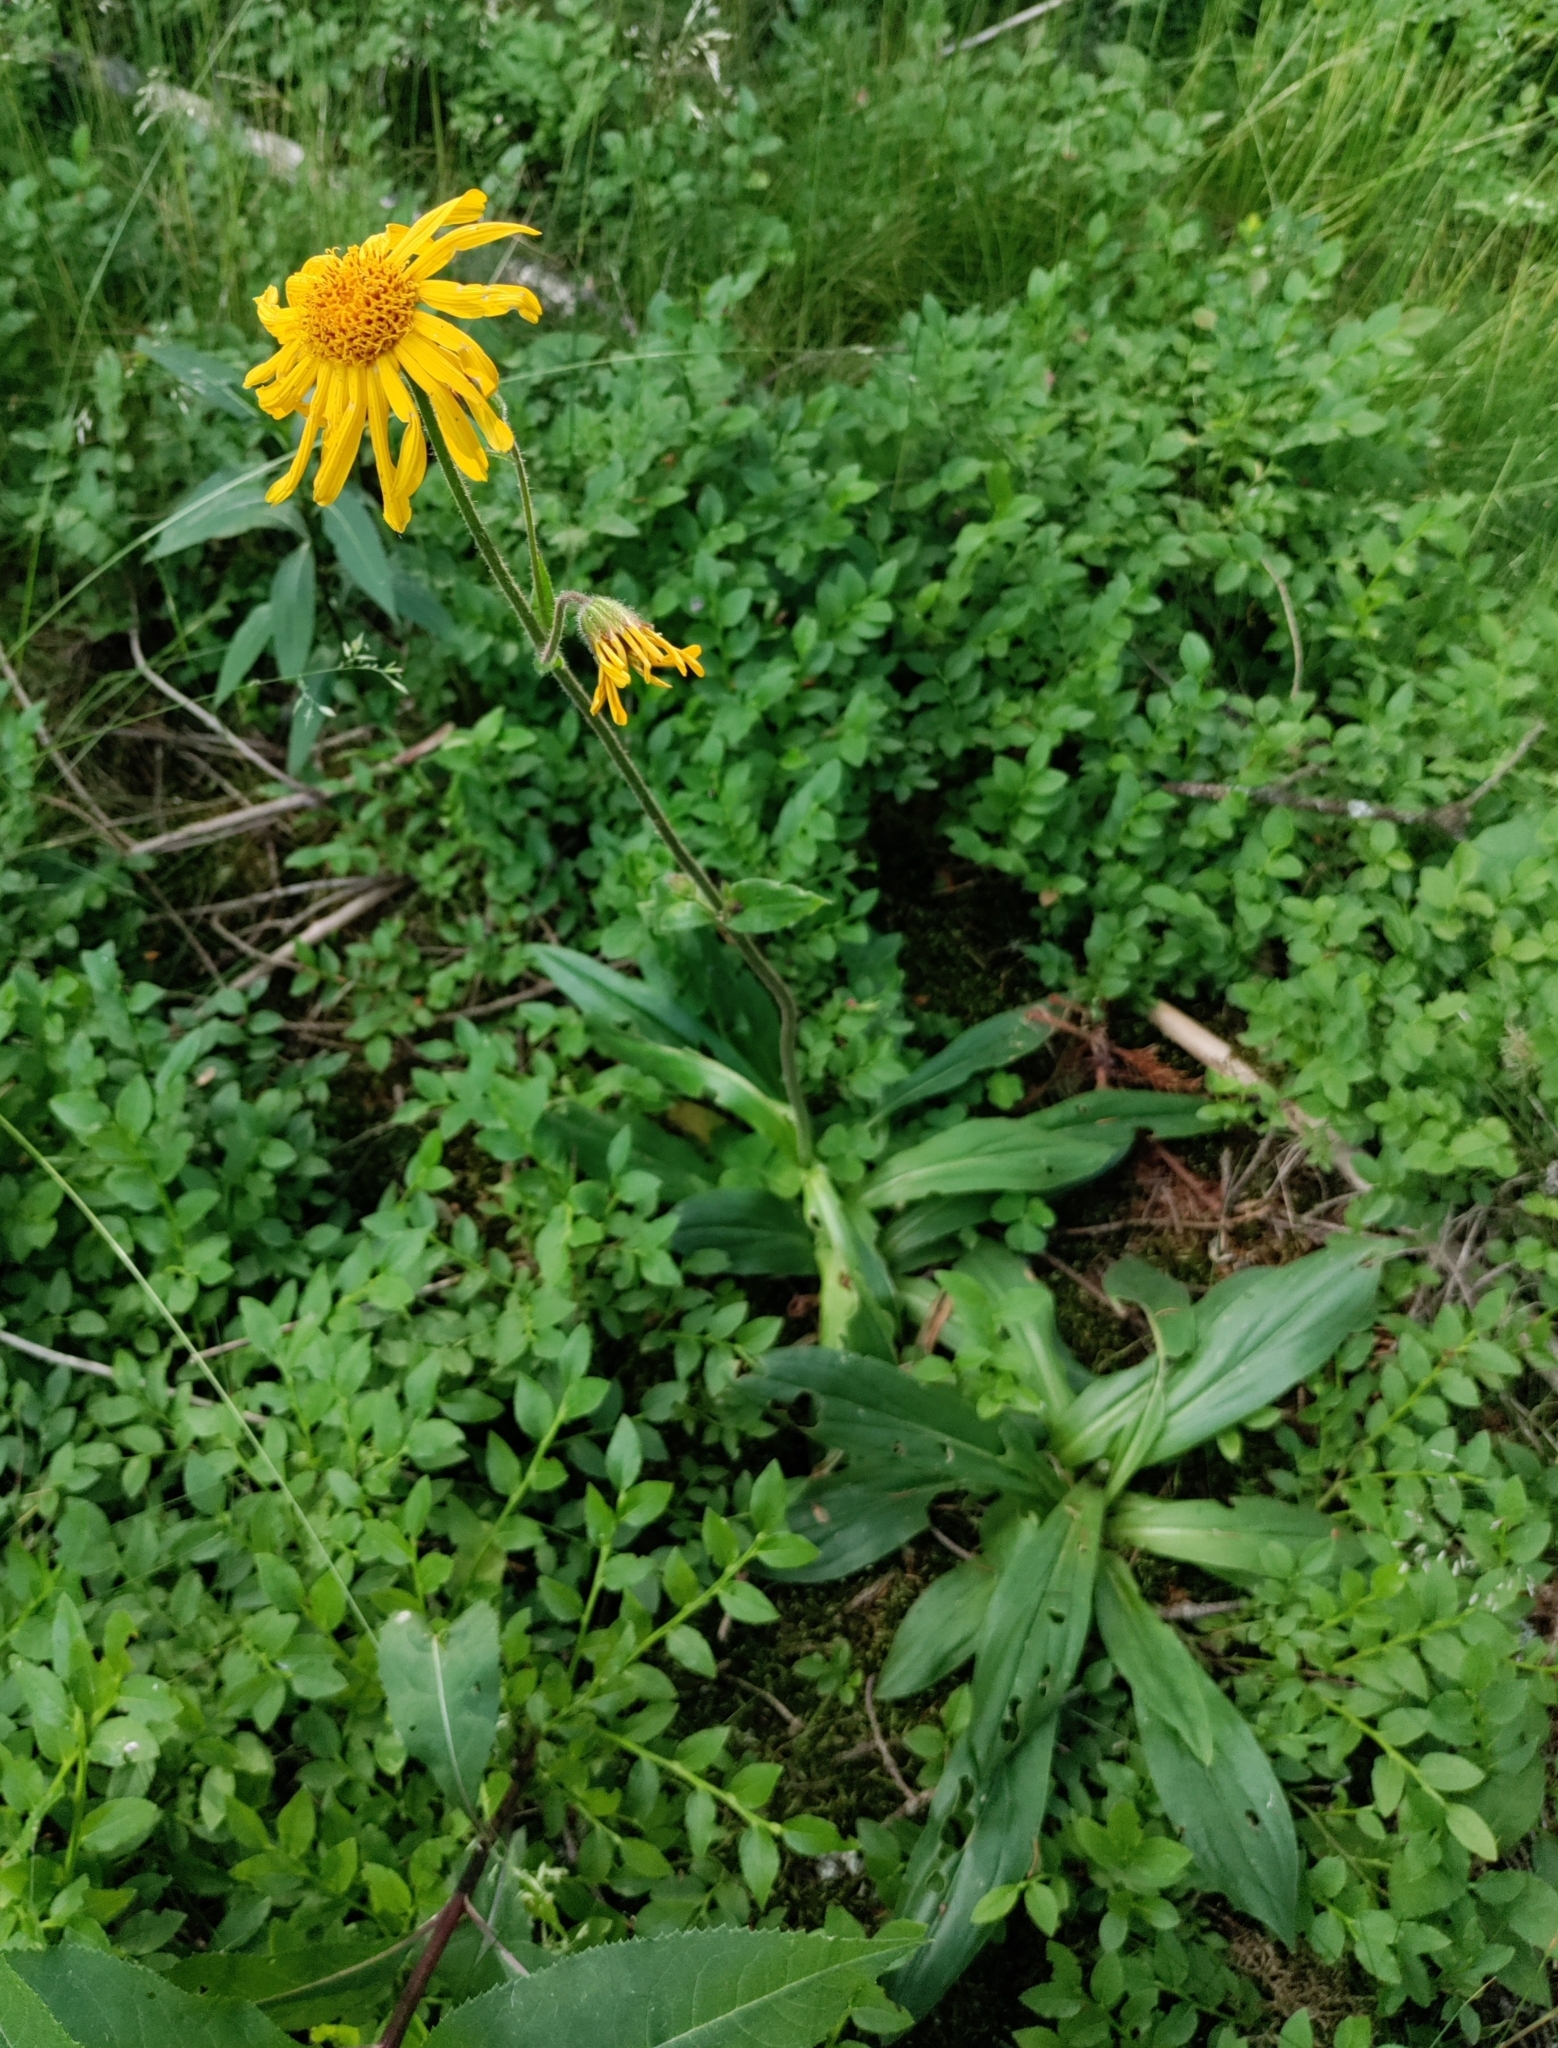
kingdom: Plantae
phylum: Tracheophyta
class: Magnoliopsida
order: Asterales
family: Asteraceae
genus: Arnica
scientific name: Arnica montana
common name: Leopard's bane
